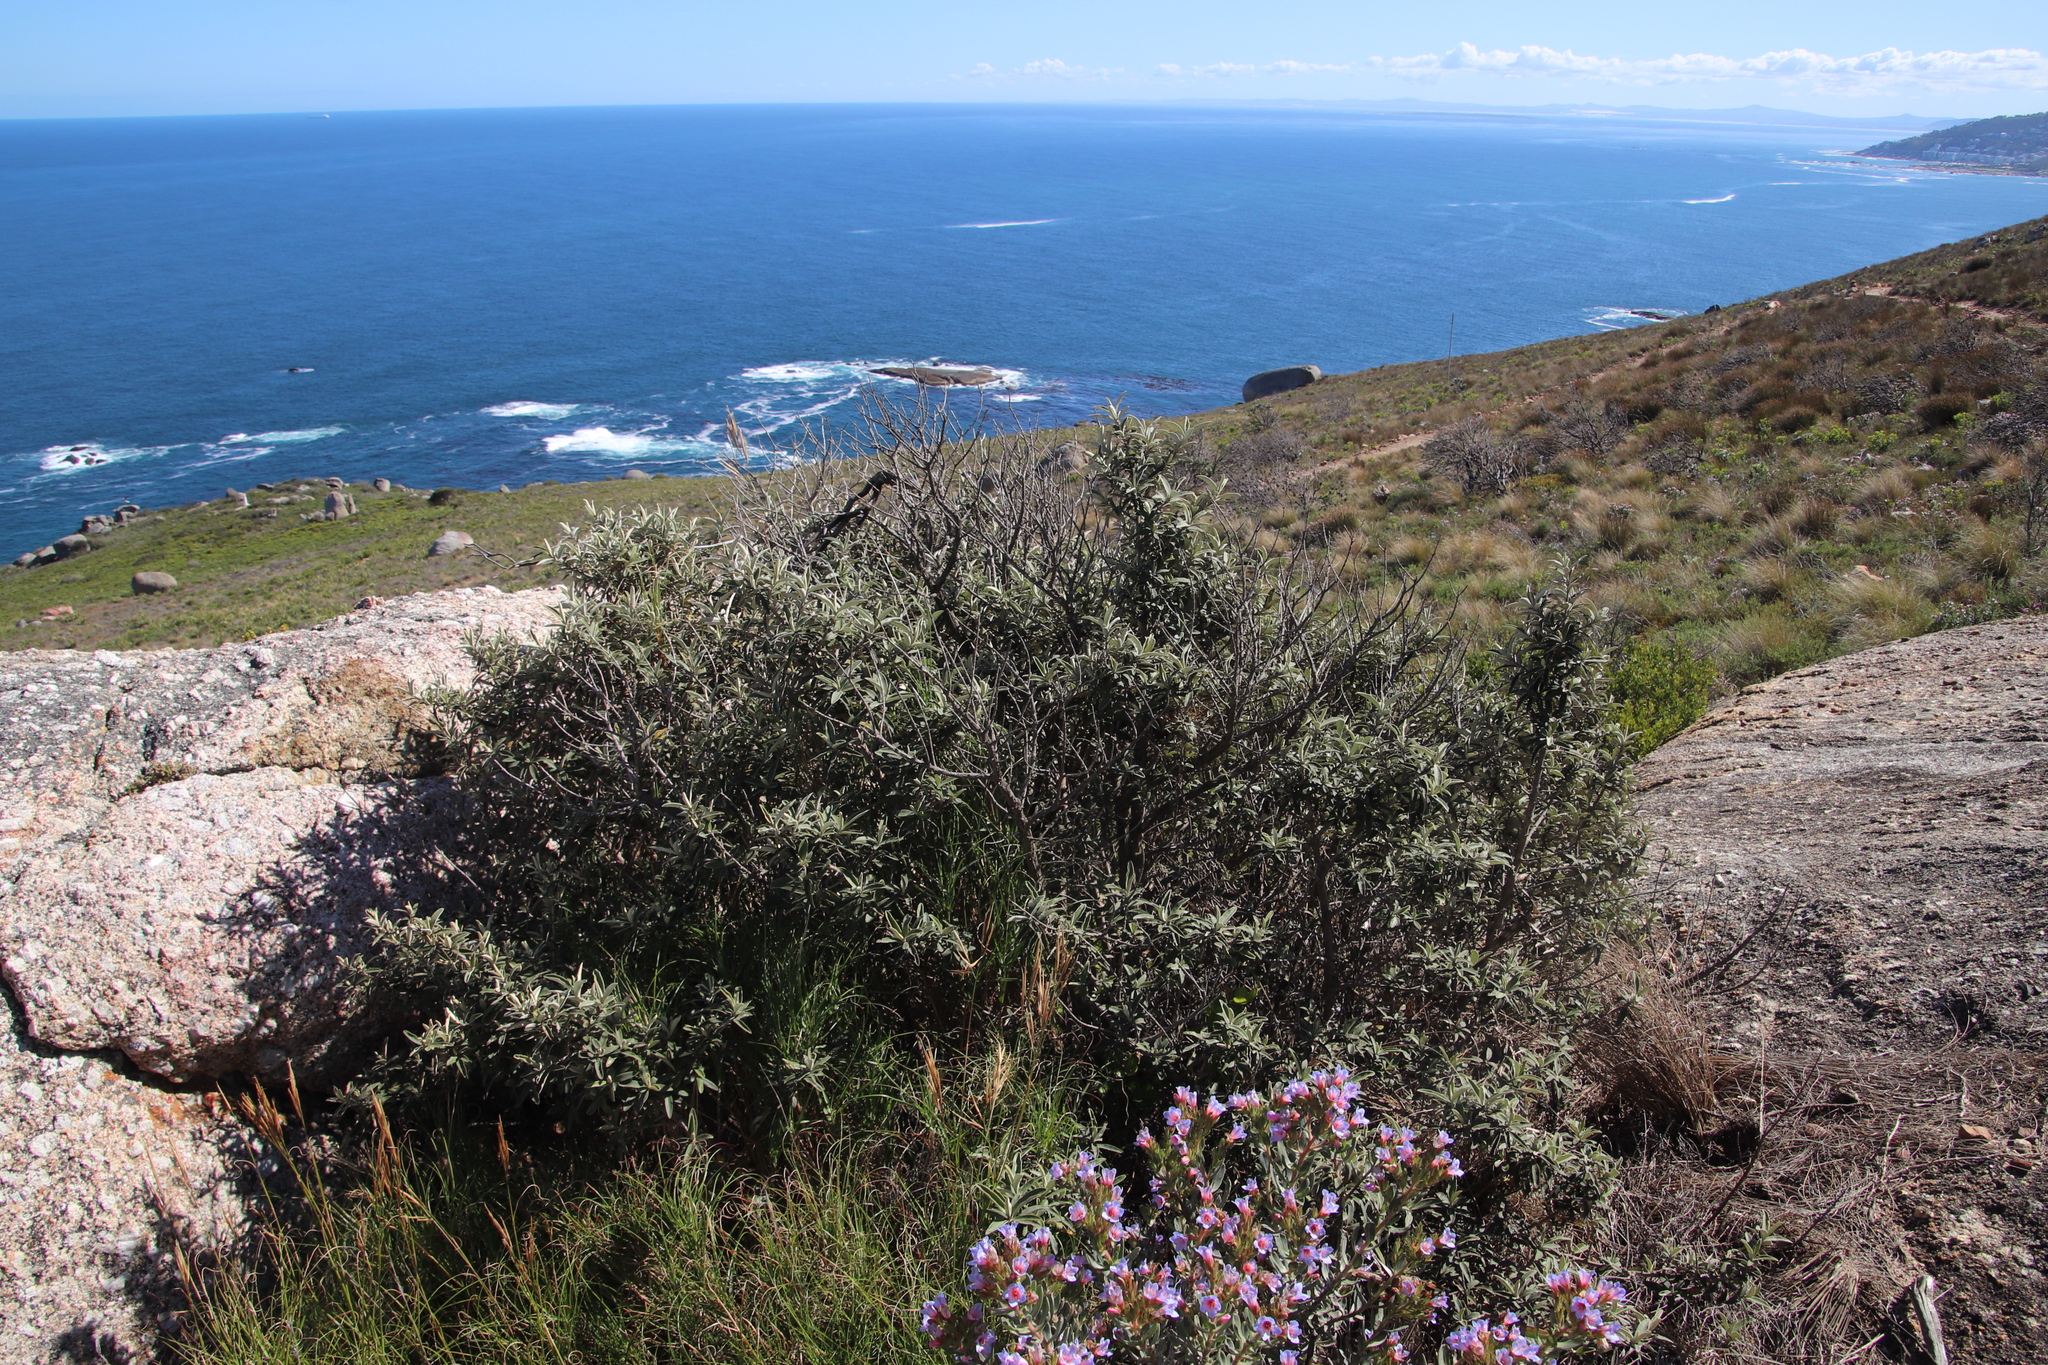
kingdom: Plantae
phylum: Tracheophyta
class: Magnoliopsida
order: Asterales
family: Asteraceae
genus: Tarchonanthus
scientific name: Tarchonanthus littoralis
